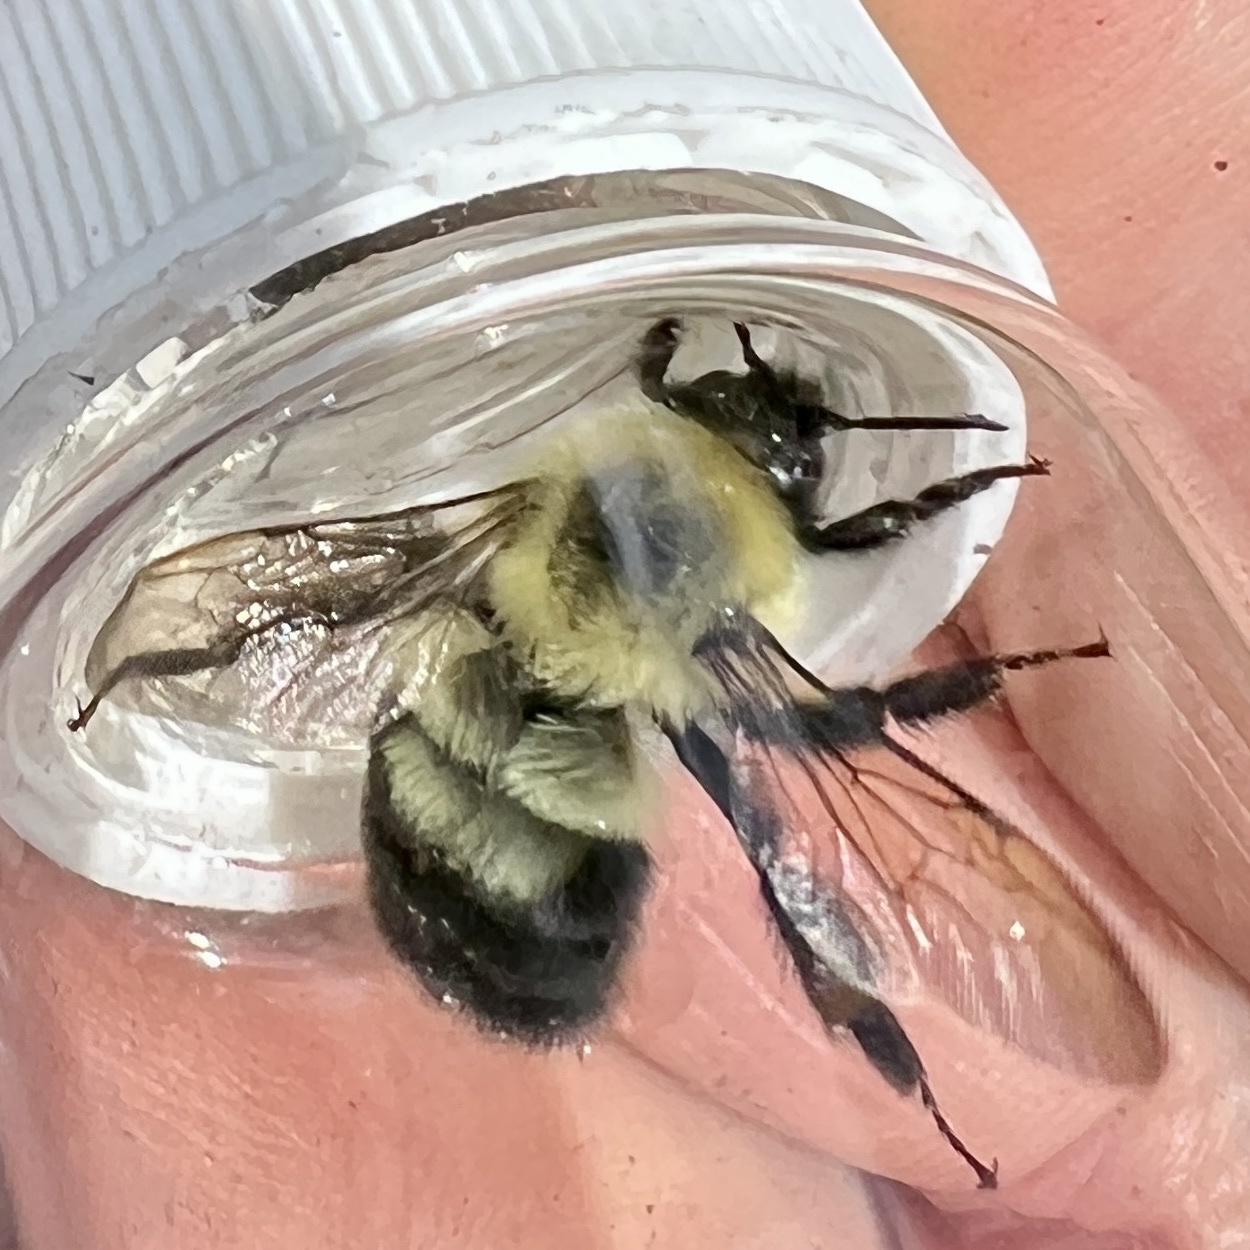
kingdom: Animalia
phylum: Arthropoda
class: Insecta
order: Hymenoptera
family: Apidae
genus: Bombus
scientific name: Bombus bimaculatus
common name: Two-spotted bumble bee
